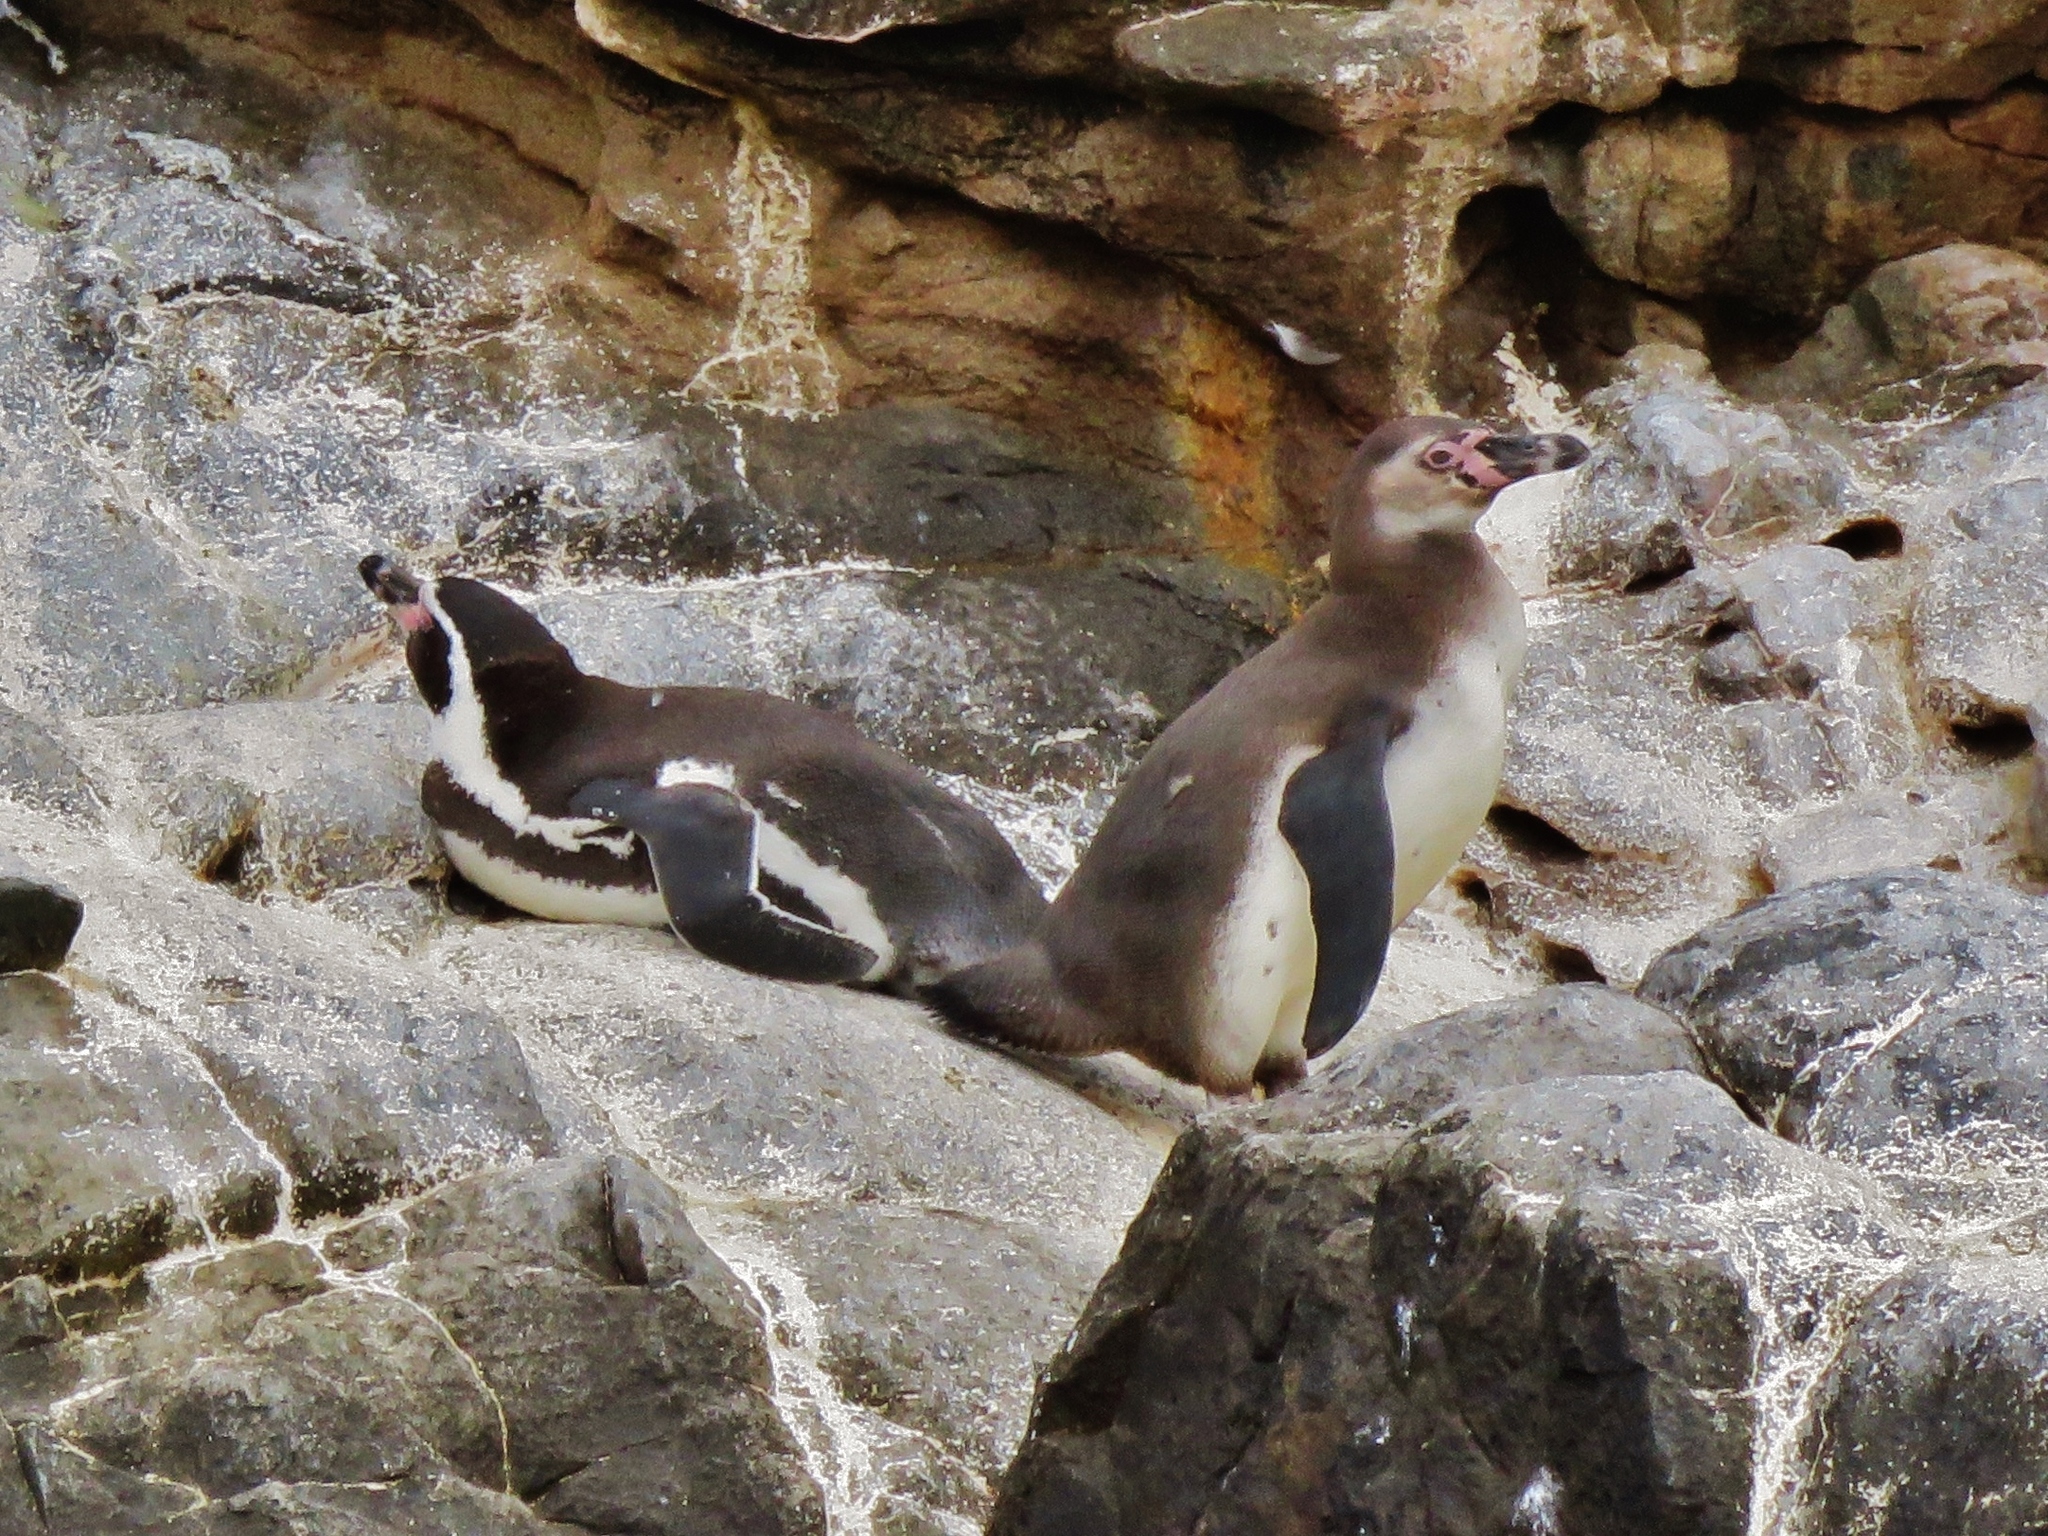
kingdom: Animalia
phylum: Chordata
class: Aves
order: Sphenisciformes
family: Spheniscidae
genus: Spheniscus
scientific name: Spheniscus humboldti
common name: Humboldt penguin
